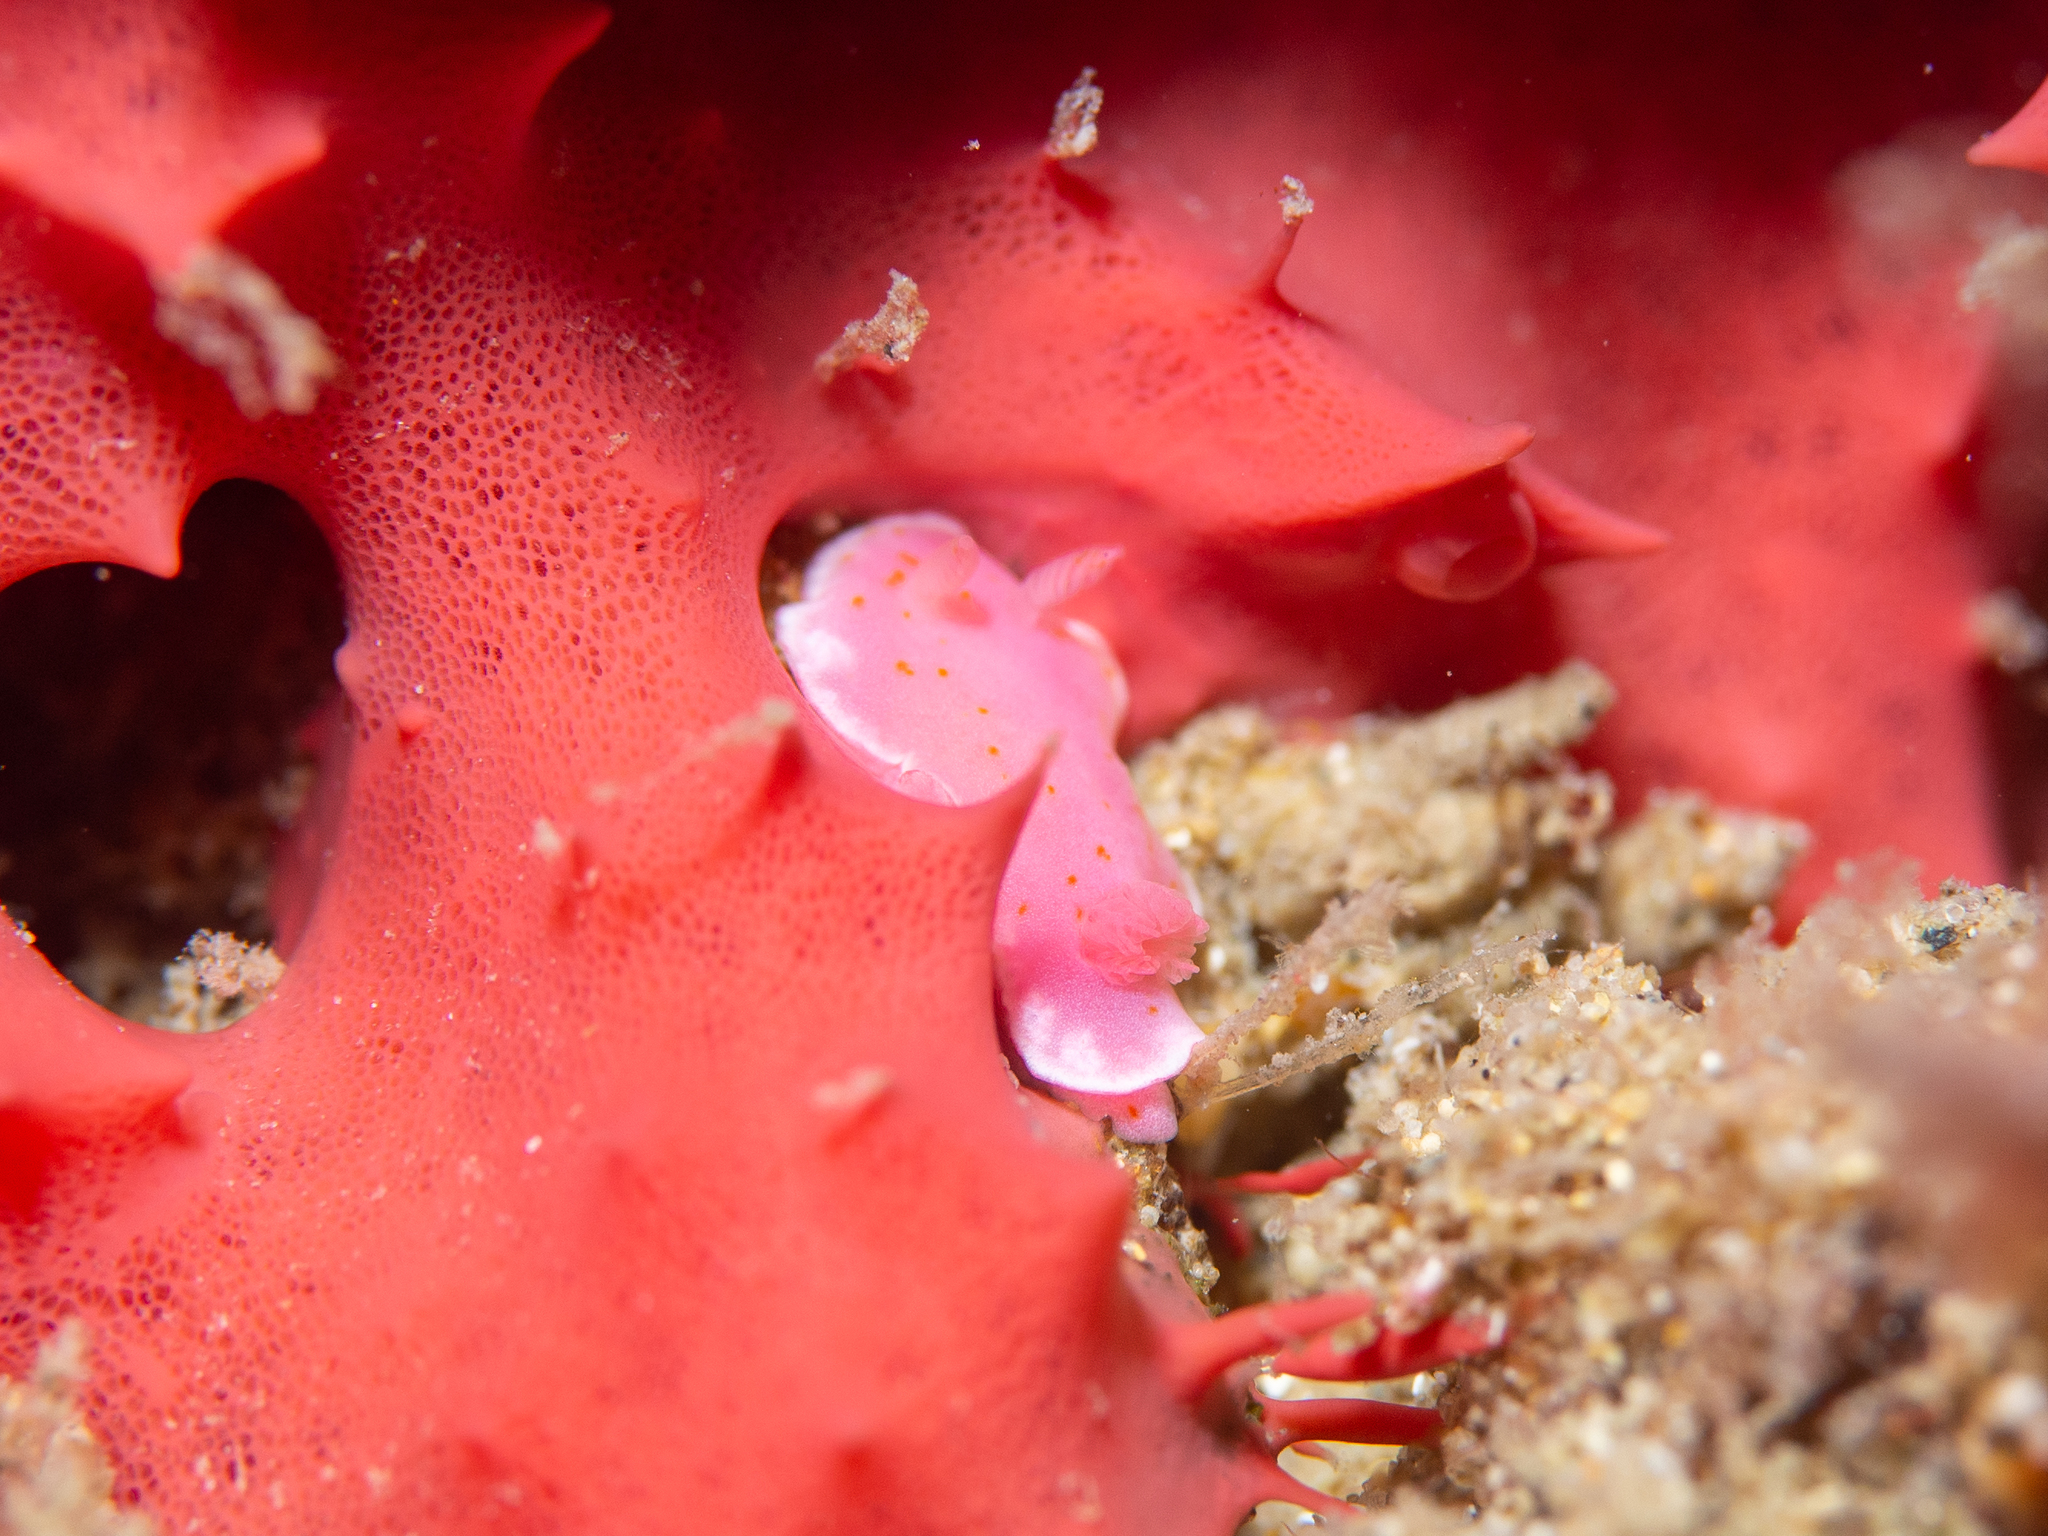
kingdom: Animalia
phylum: Mollusca
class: Gastropoda
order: Nudibranchia
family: Chromodorididae
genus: Verconia
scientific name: Verconia haliclona
